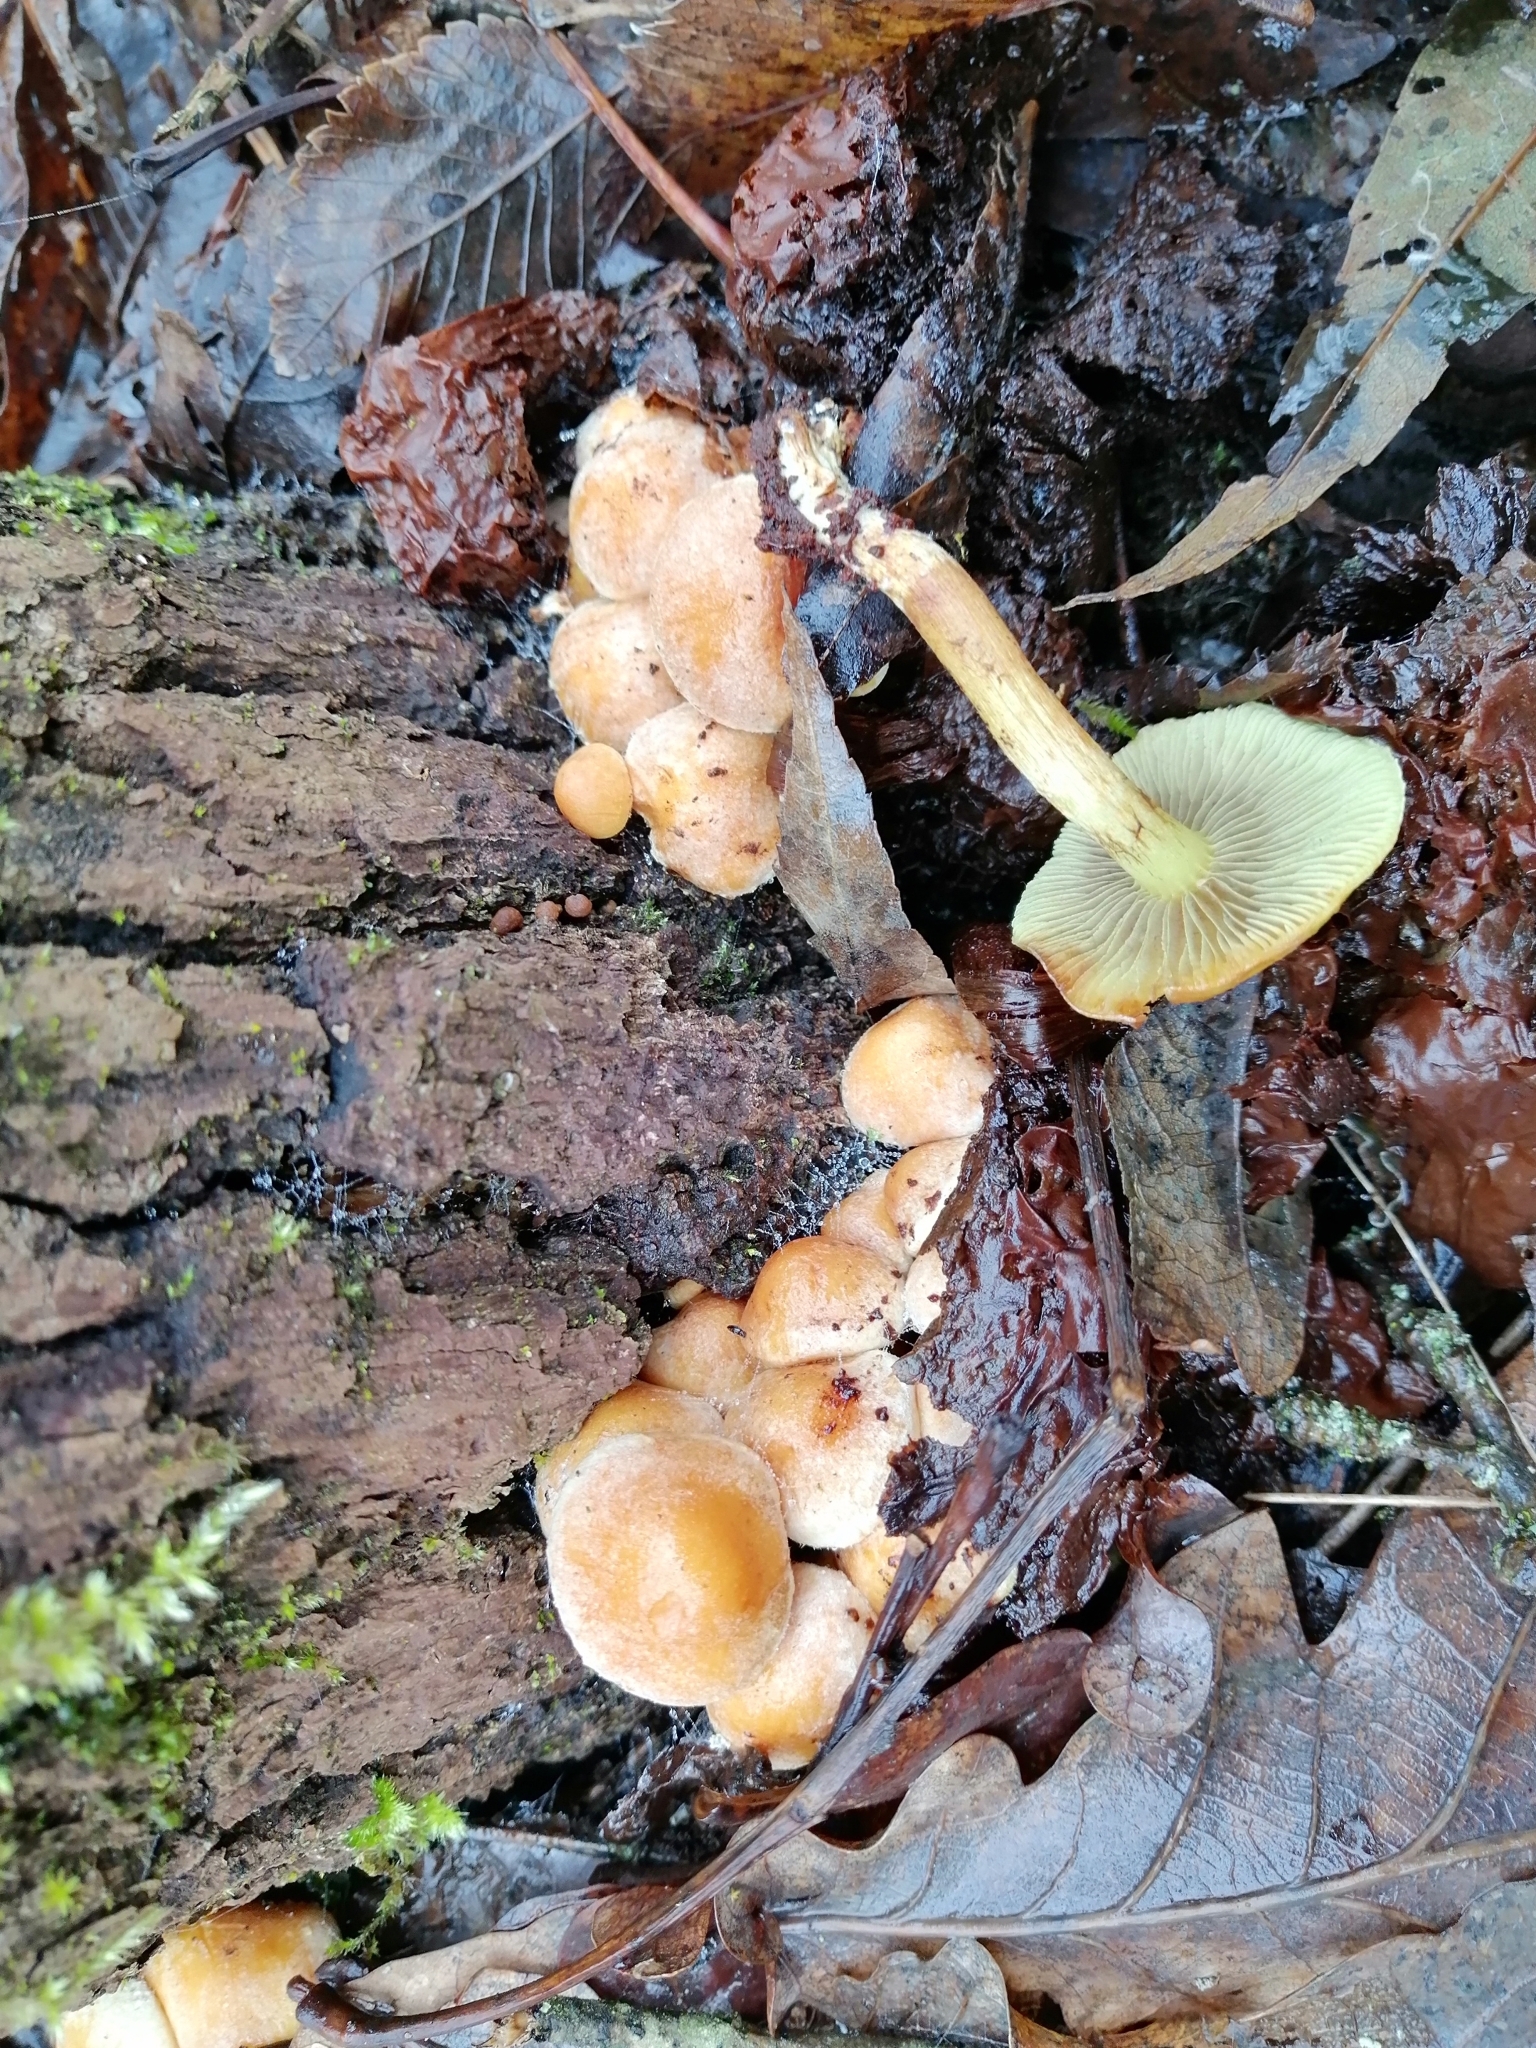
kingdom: Fungi
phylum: Basidiomycota
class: Agaricomycetes
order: Agaricales
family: Strophariaceae
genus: Hypholoma
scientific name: Hypholoma fasciculare
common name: Sulphur tuft
